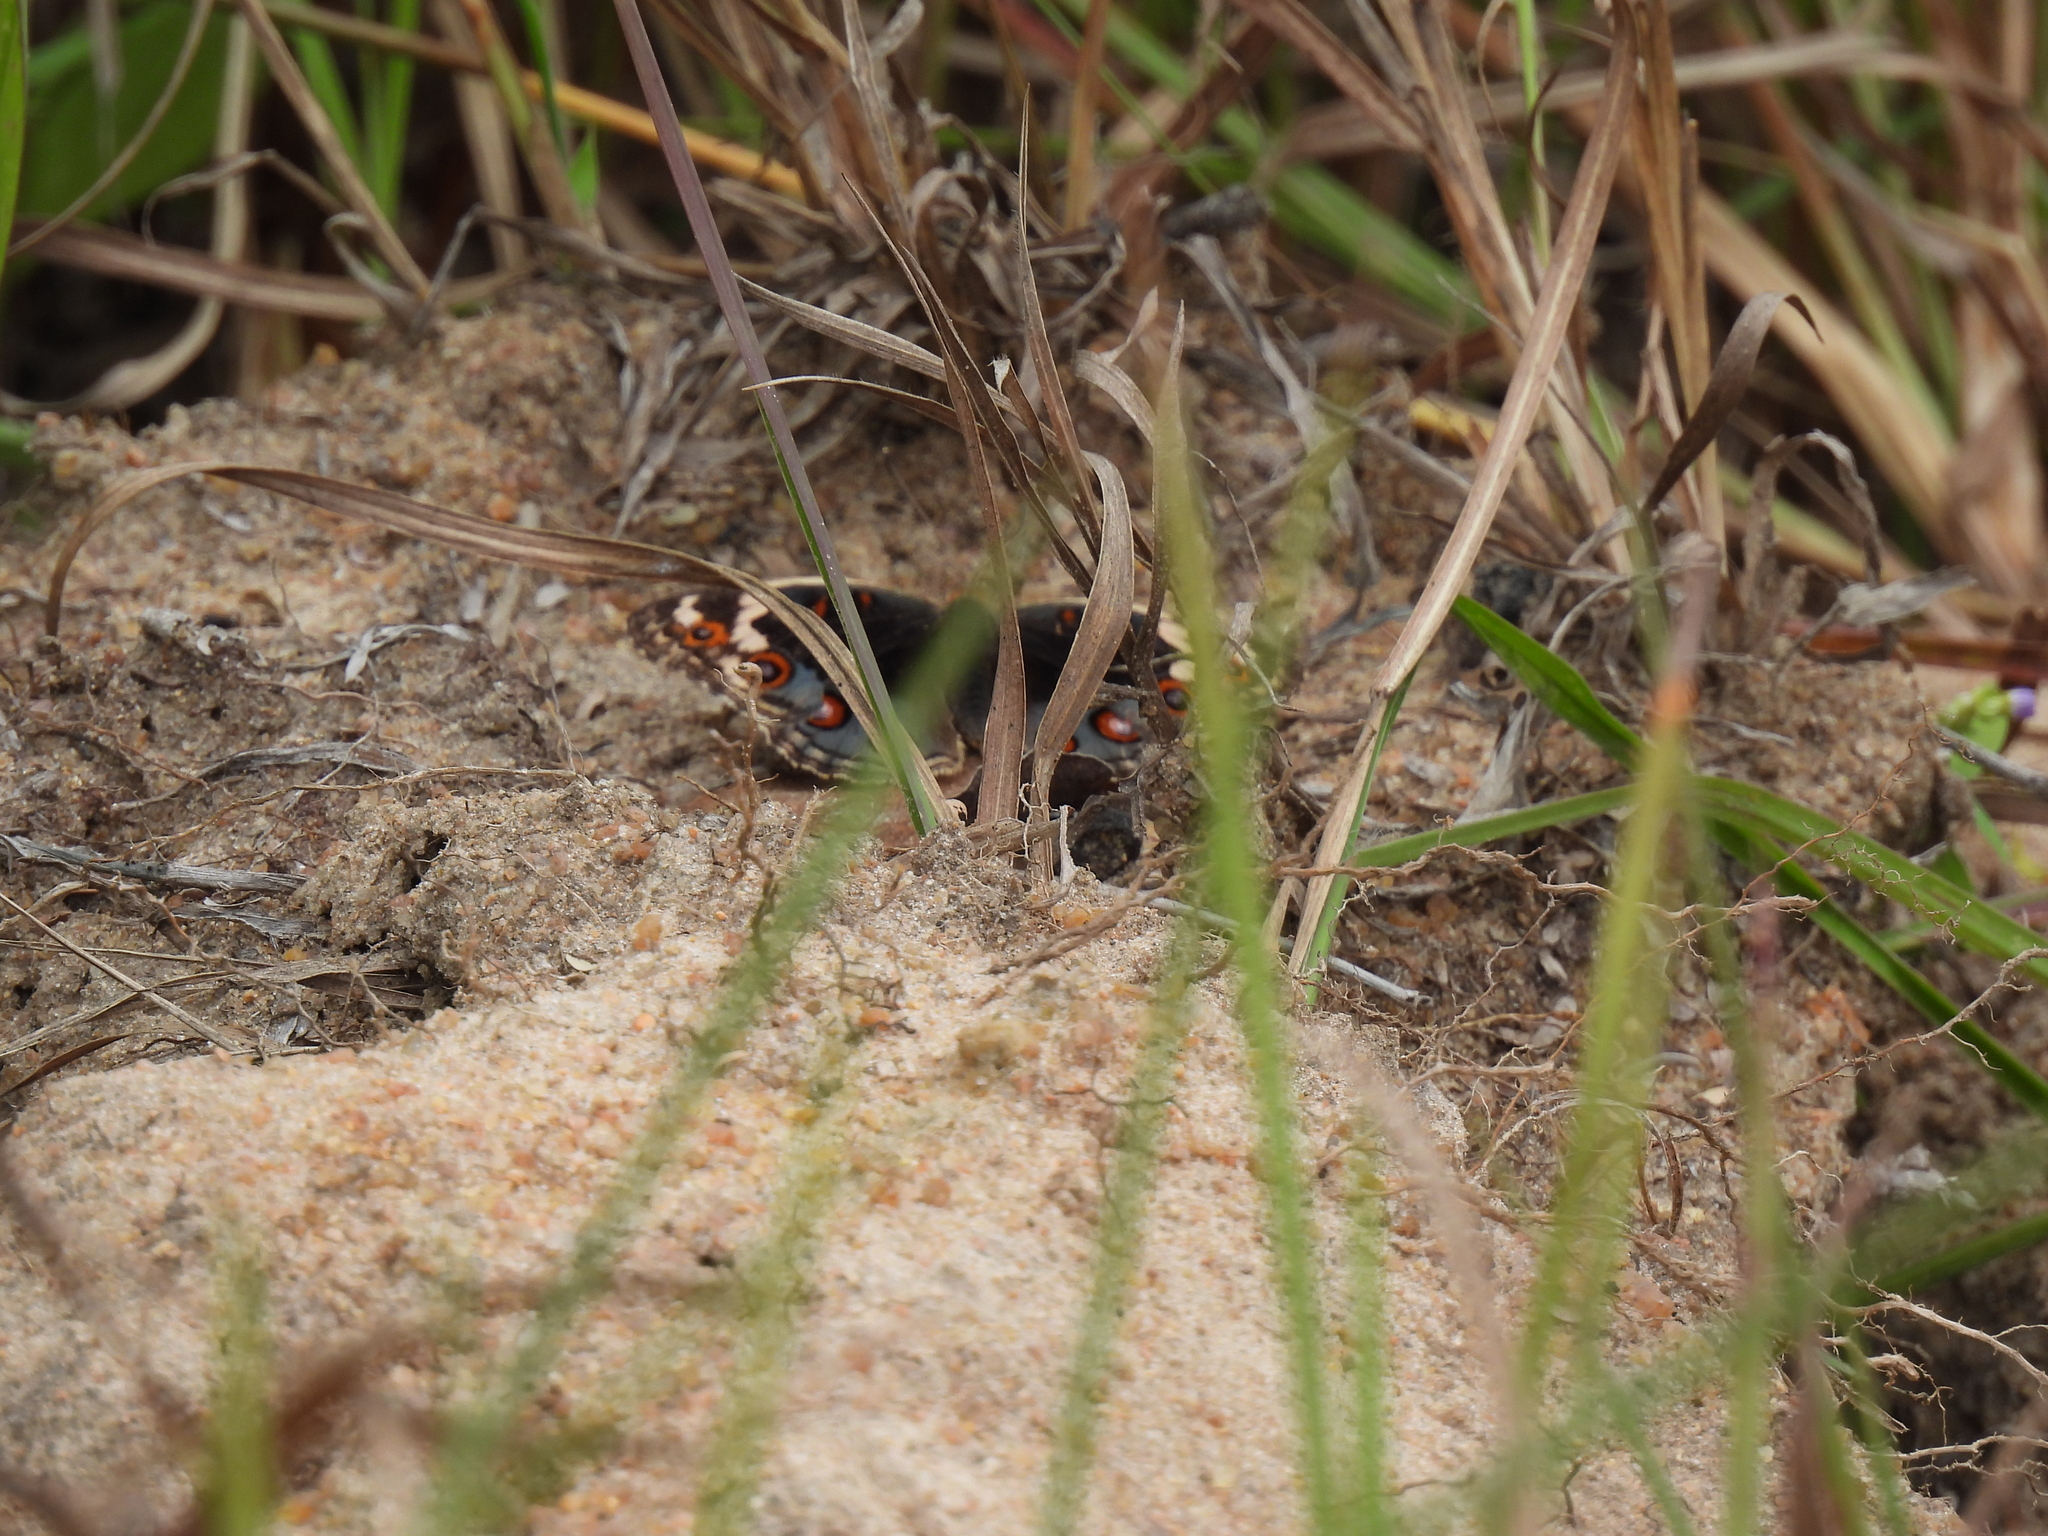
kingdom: Animalia
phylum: Arthropoda
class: Insecta
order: Lepidoptera
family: Nymphalidae
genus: Junonia
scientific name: Junonia orithya
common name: Blue pansy
